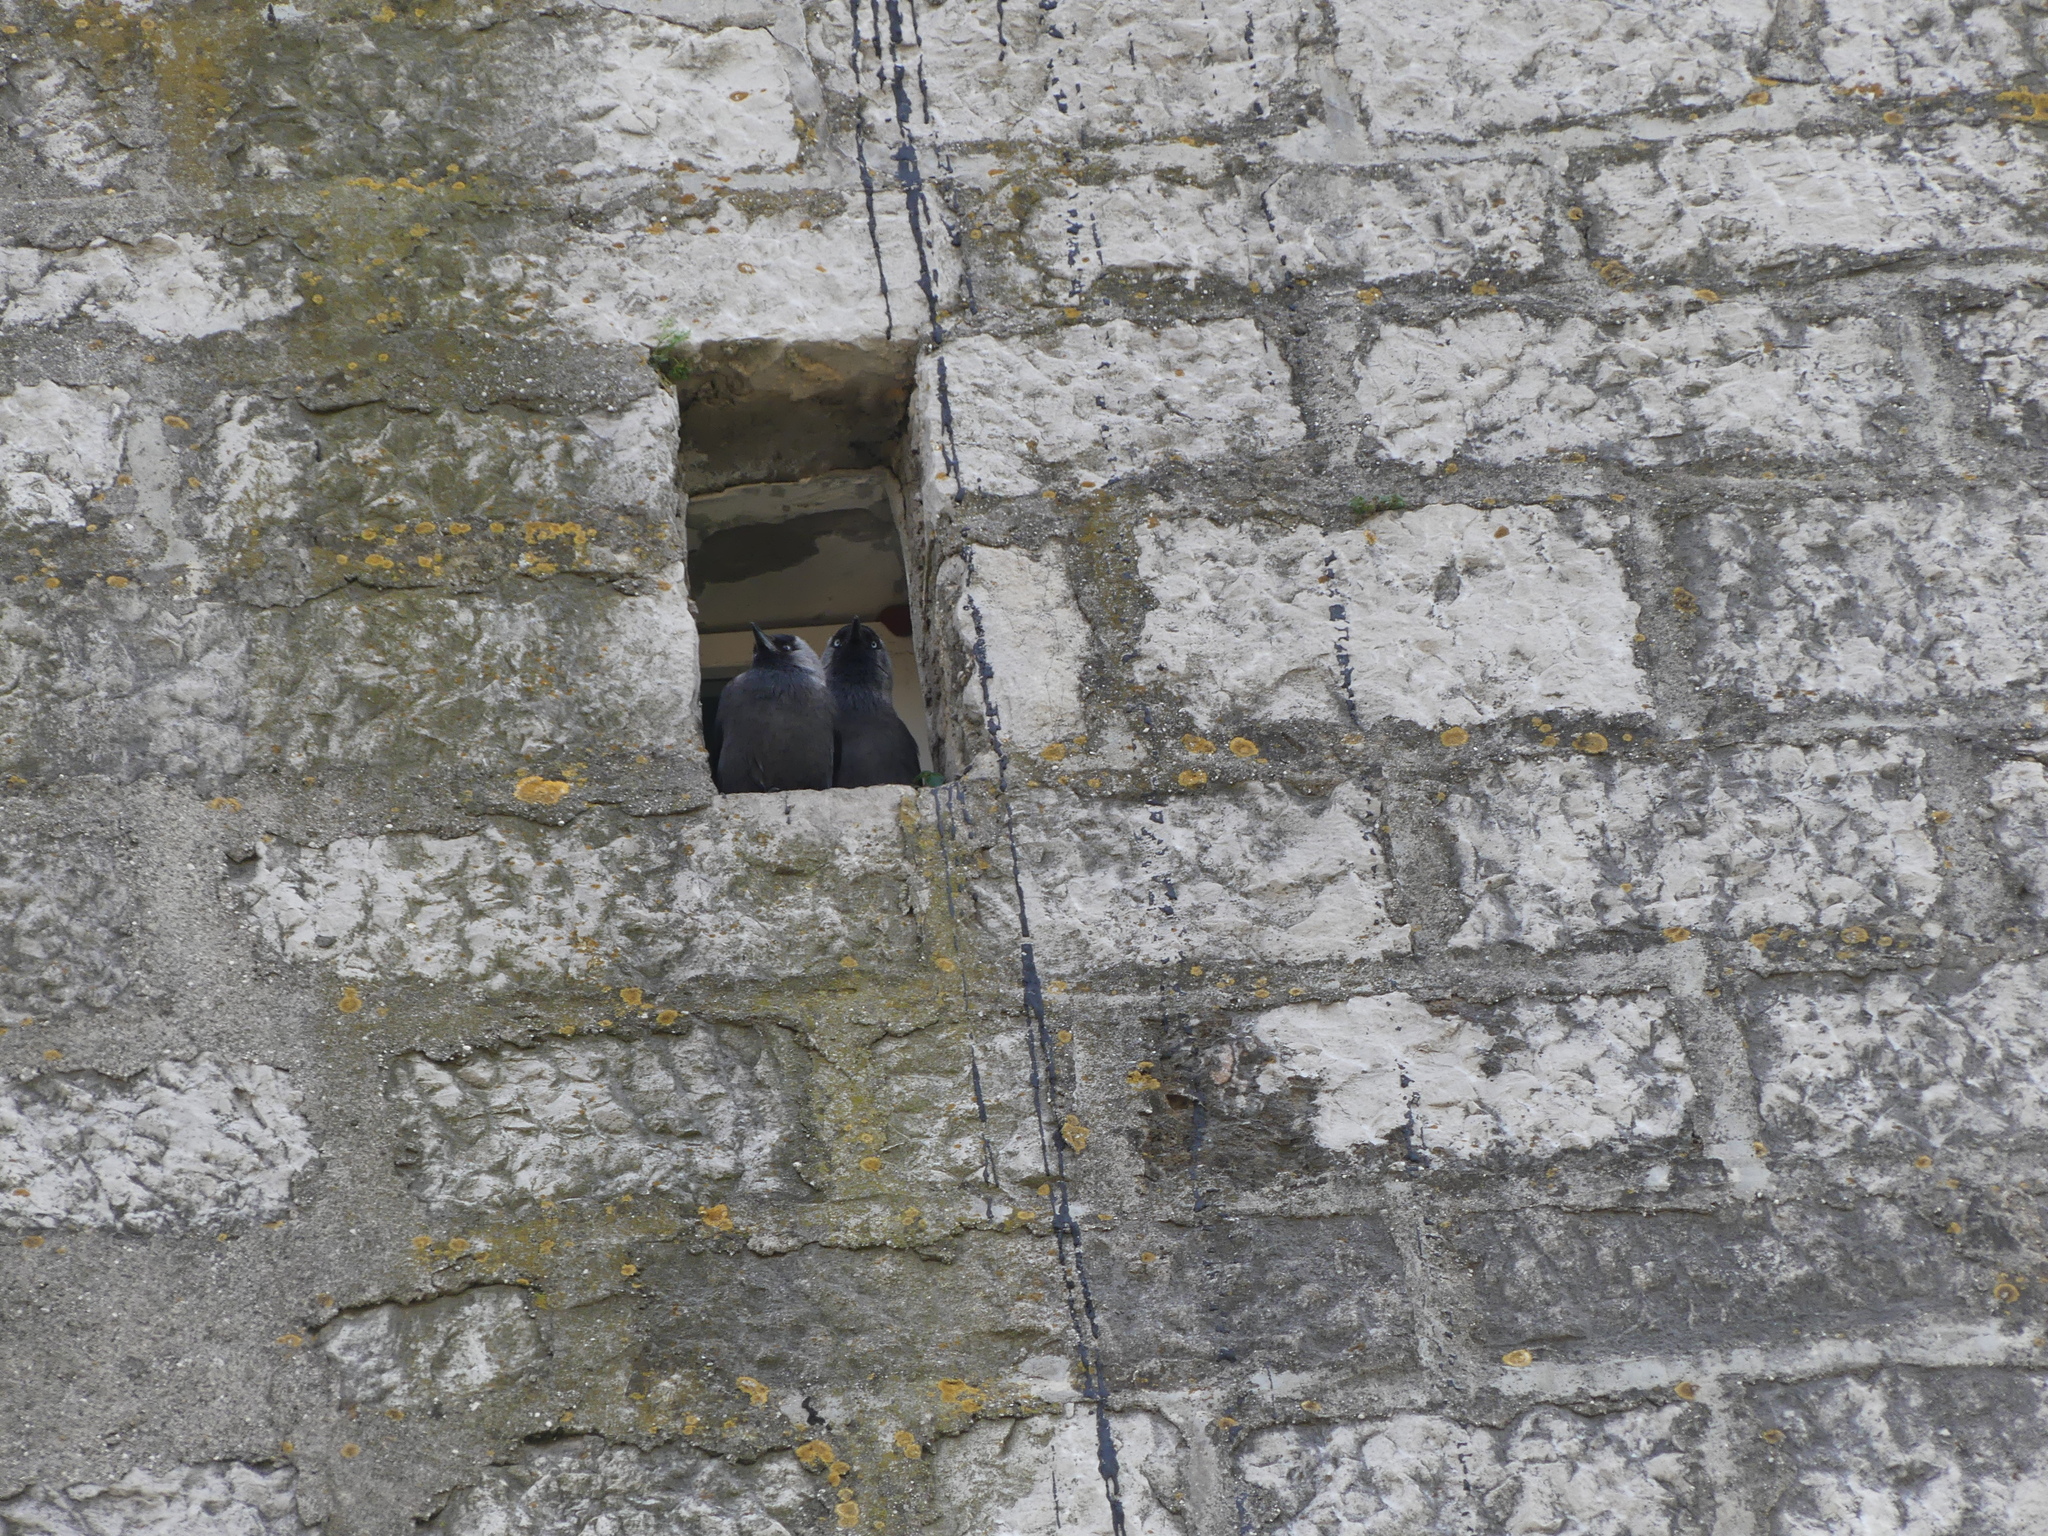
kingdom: Animalia
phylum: Chordata
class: Aves
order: Passeriformes
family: Corvidae
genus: Coloeus
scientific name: Coloeus monedula
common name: Western jackdaw
